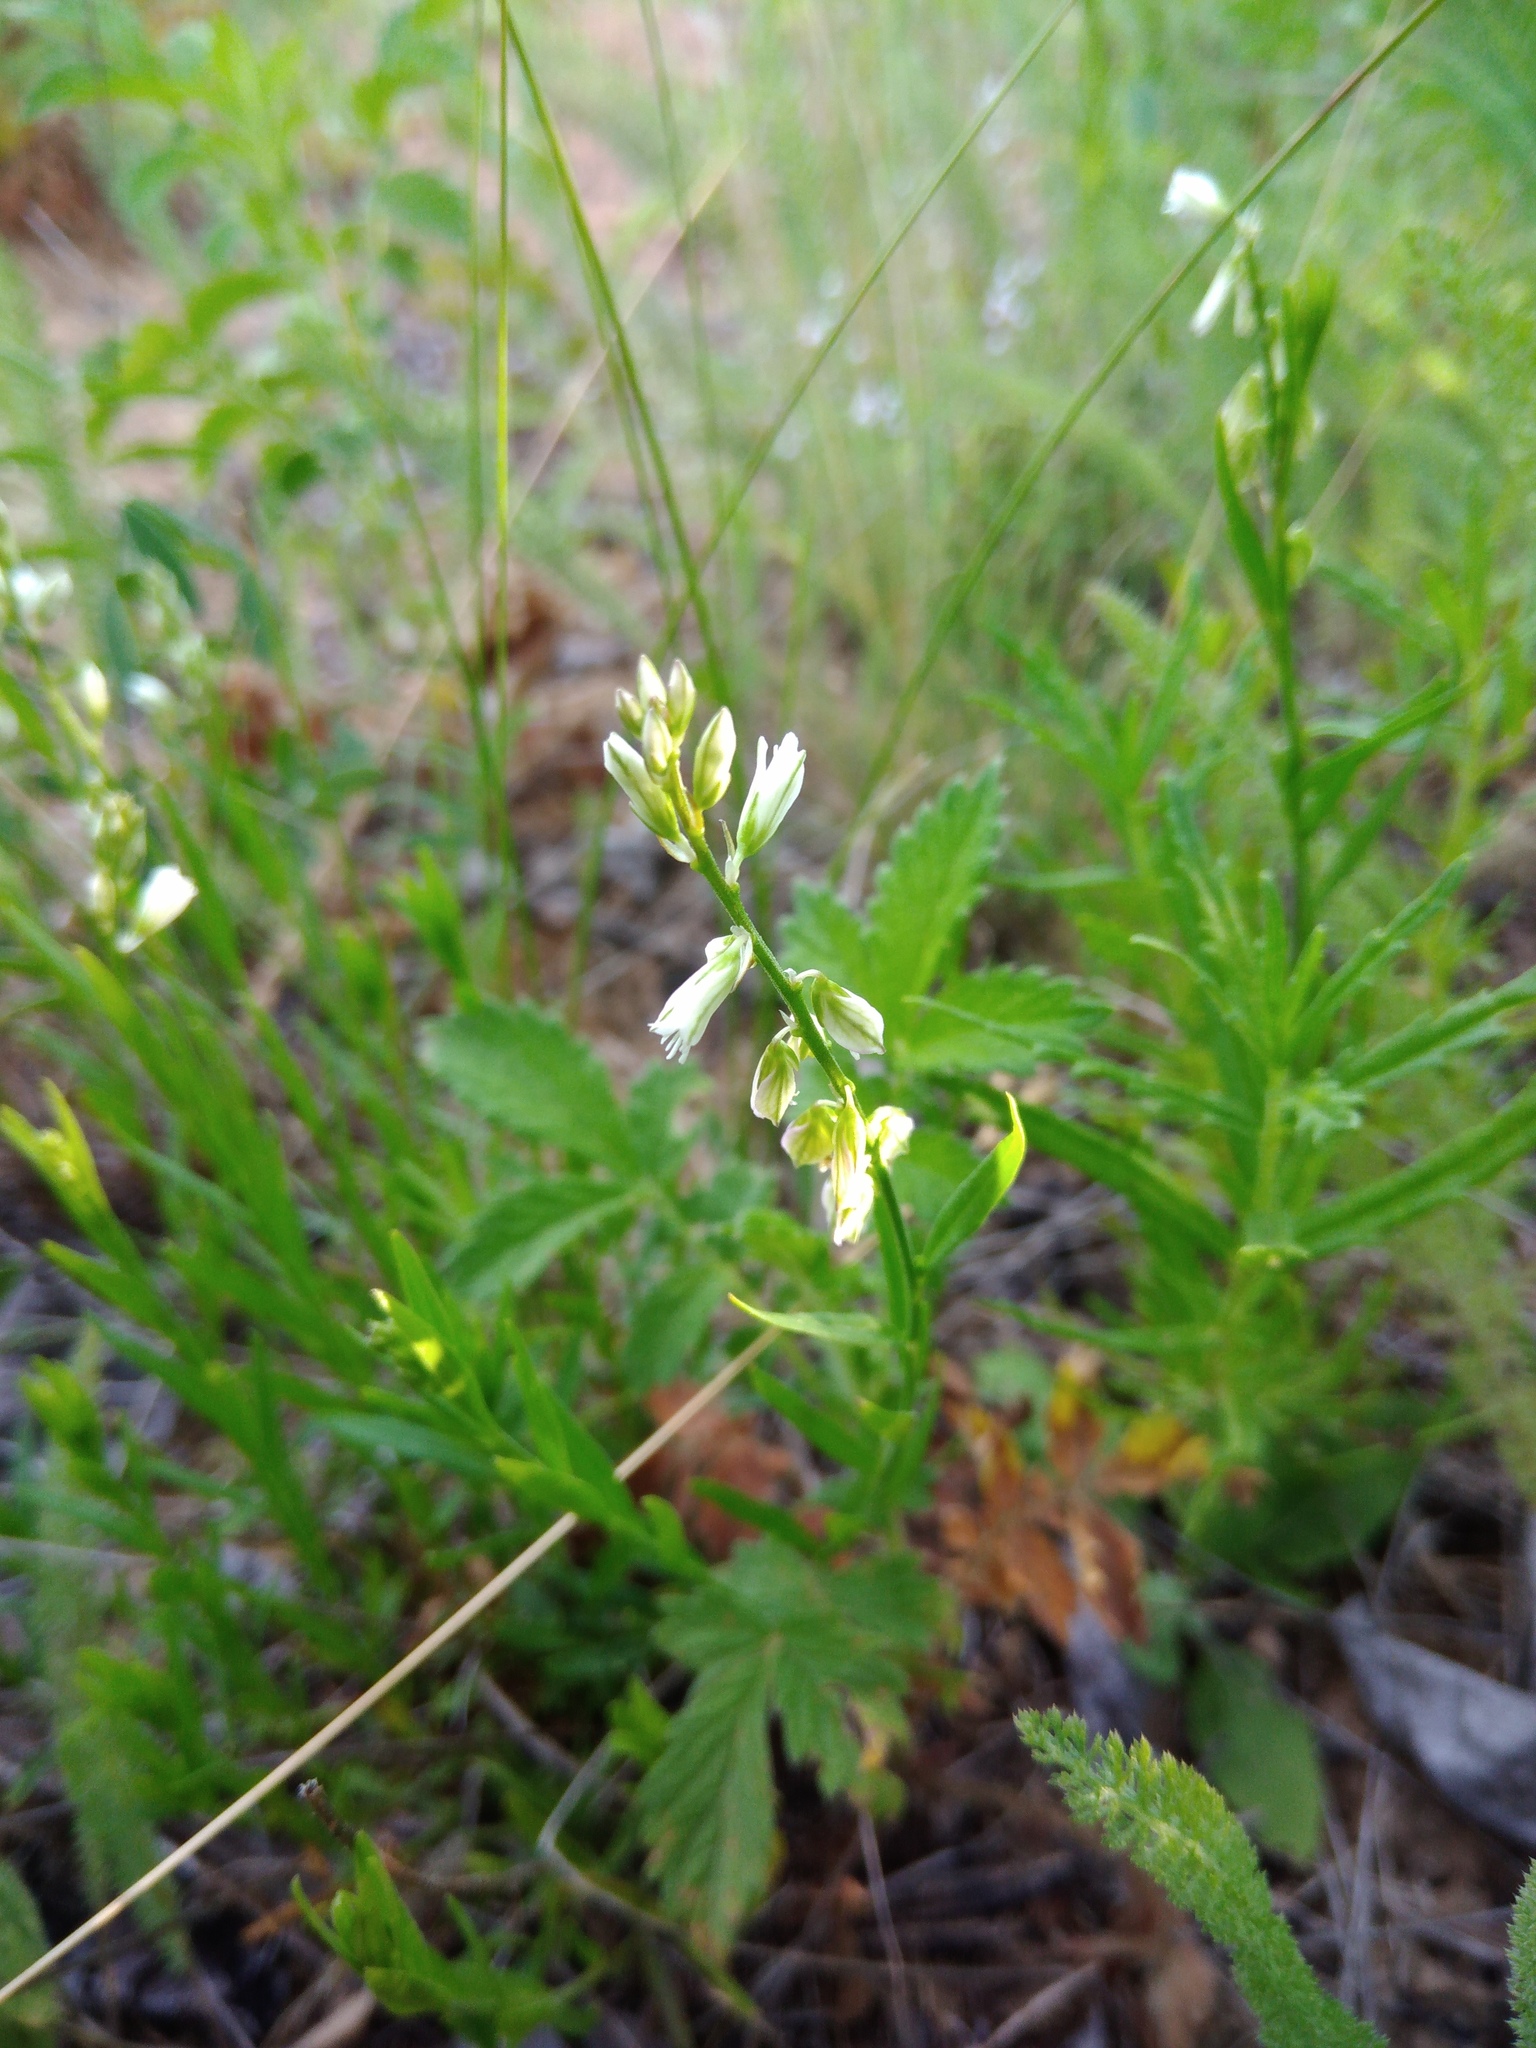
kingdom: Plantae
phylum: Tracheophyta
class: Magnoliopsida
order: Fabales
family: Polygalaceae
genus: Polygala
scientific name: Polygala comosa
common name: Tufted milkwort
